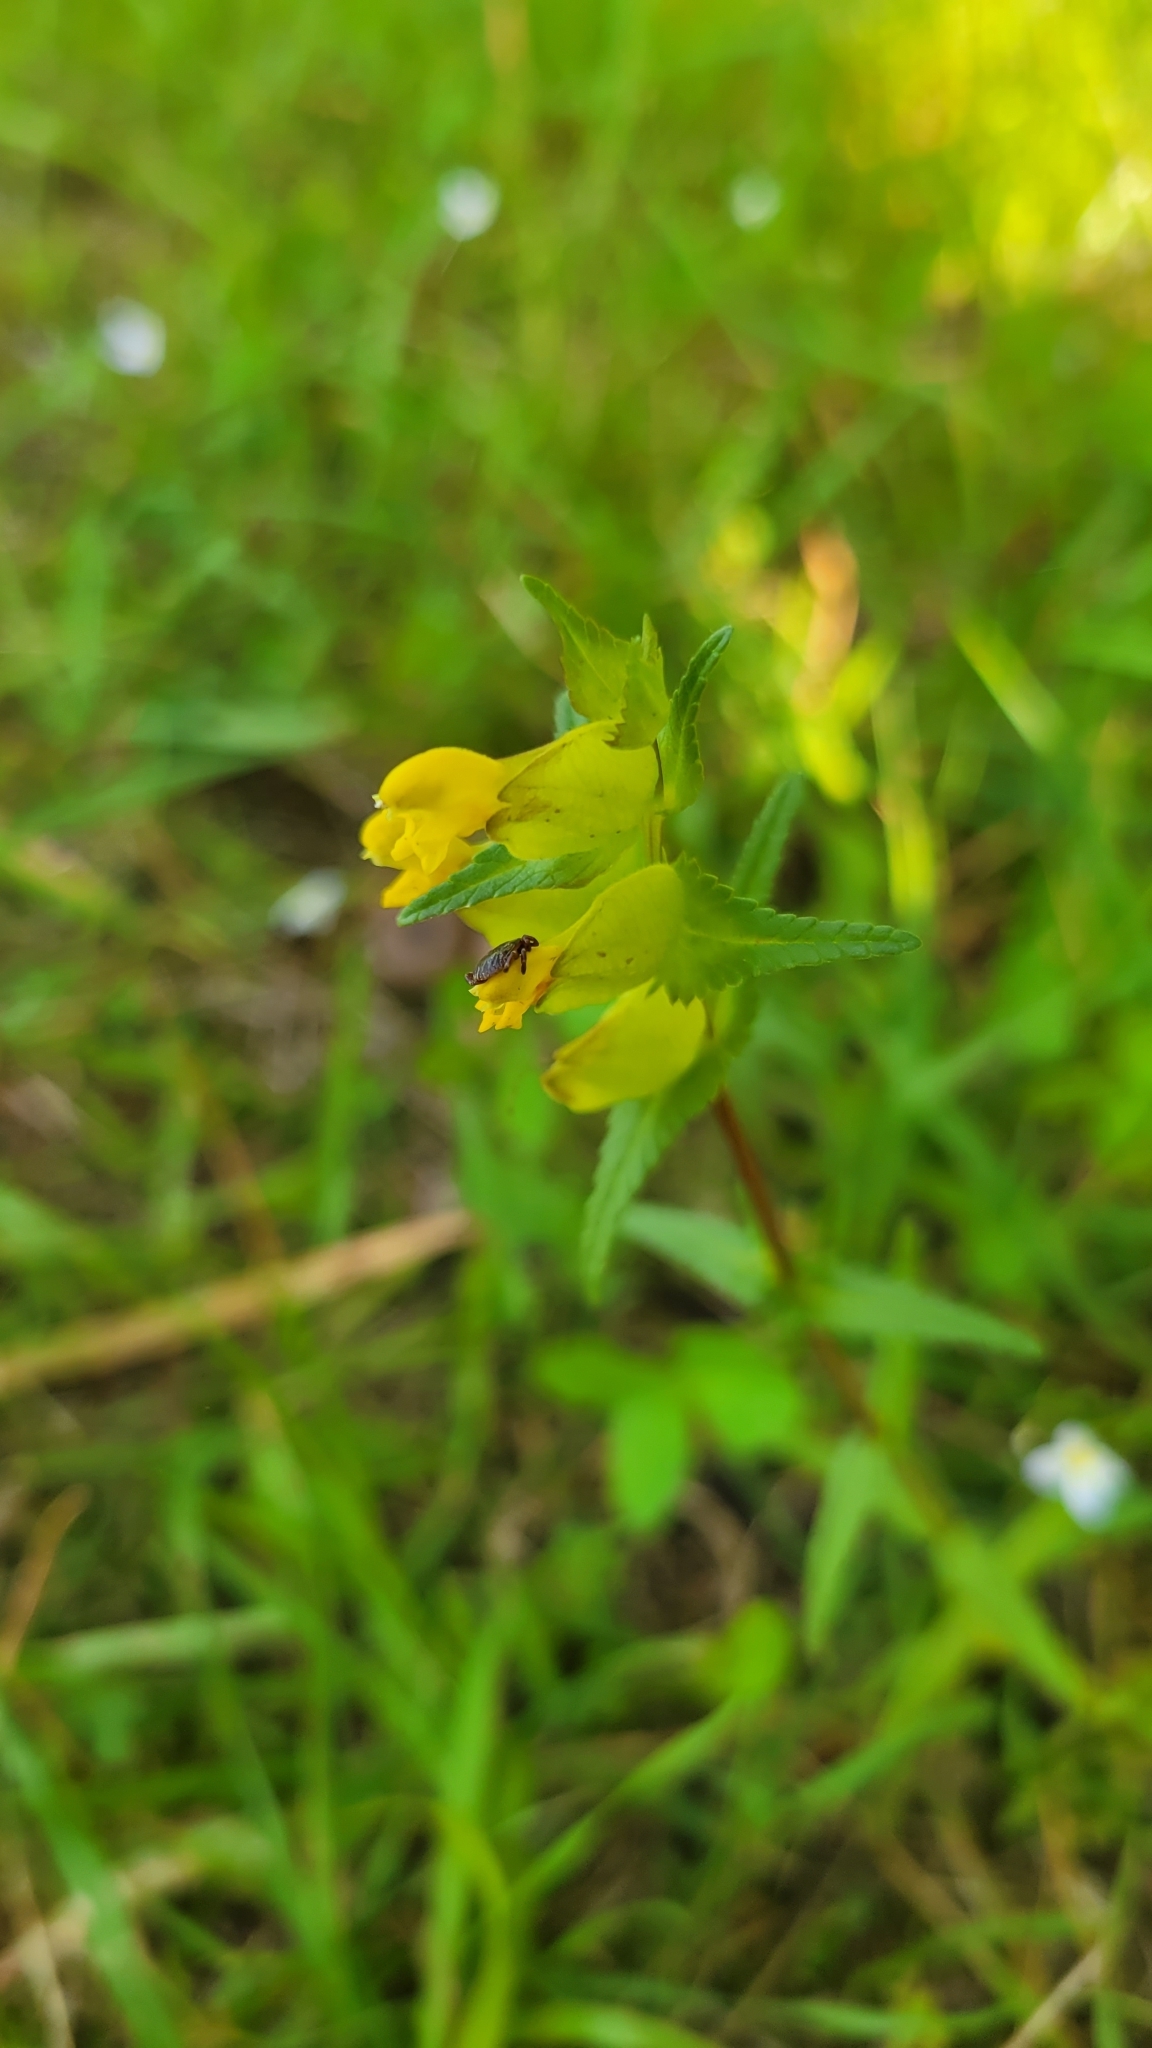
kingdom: Plantae
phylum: Tracheophyta
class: Magnoliopsida
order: Lamiales
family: Orobanchaceae
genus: Rhinanthus
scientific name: Rhinanthus minor
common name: Yellow-rattle
